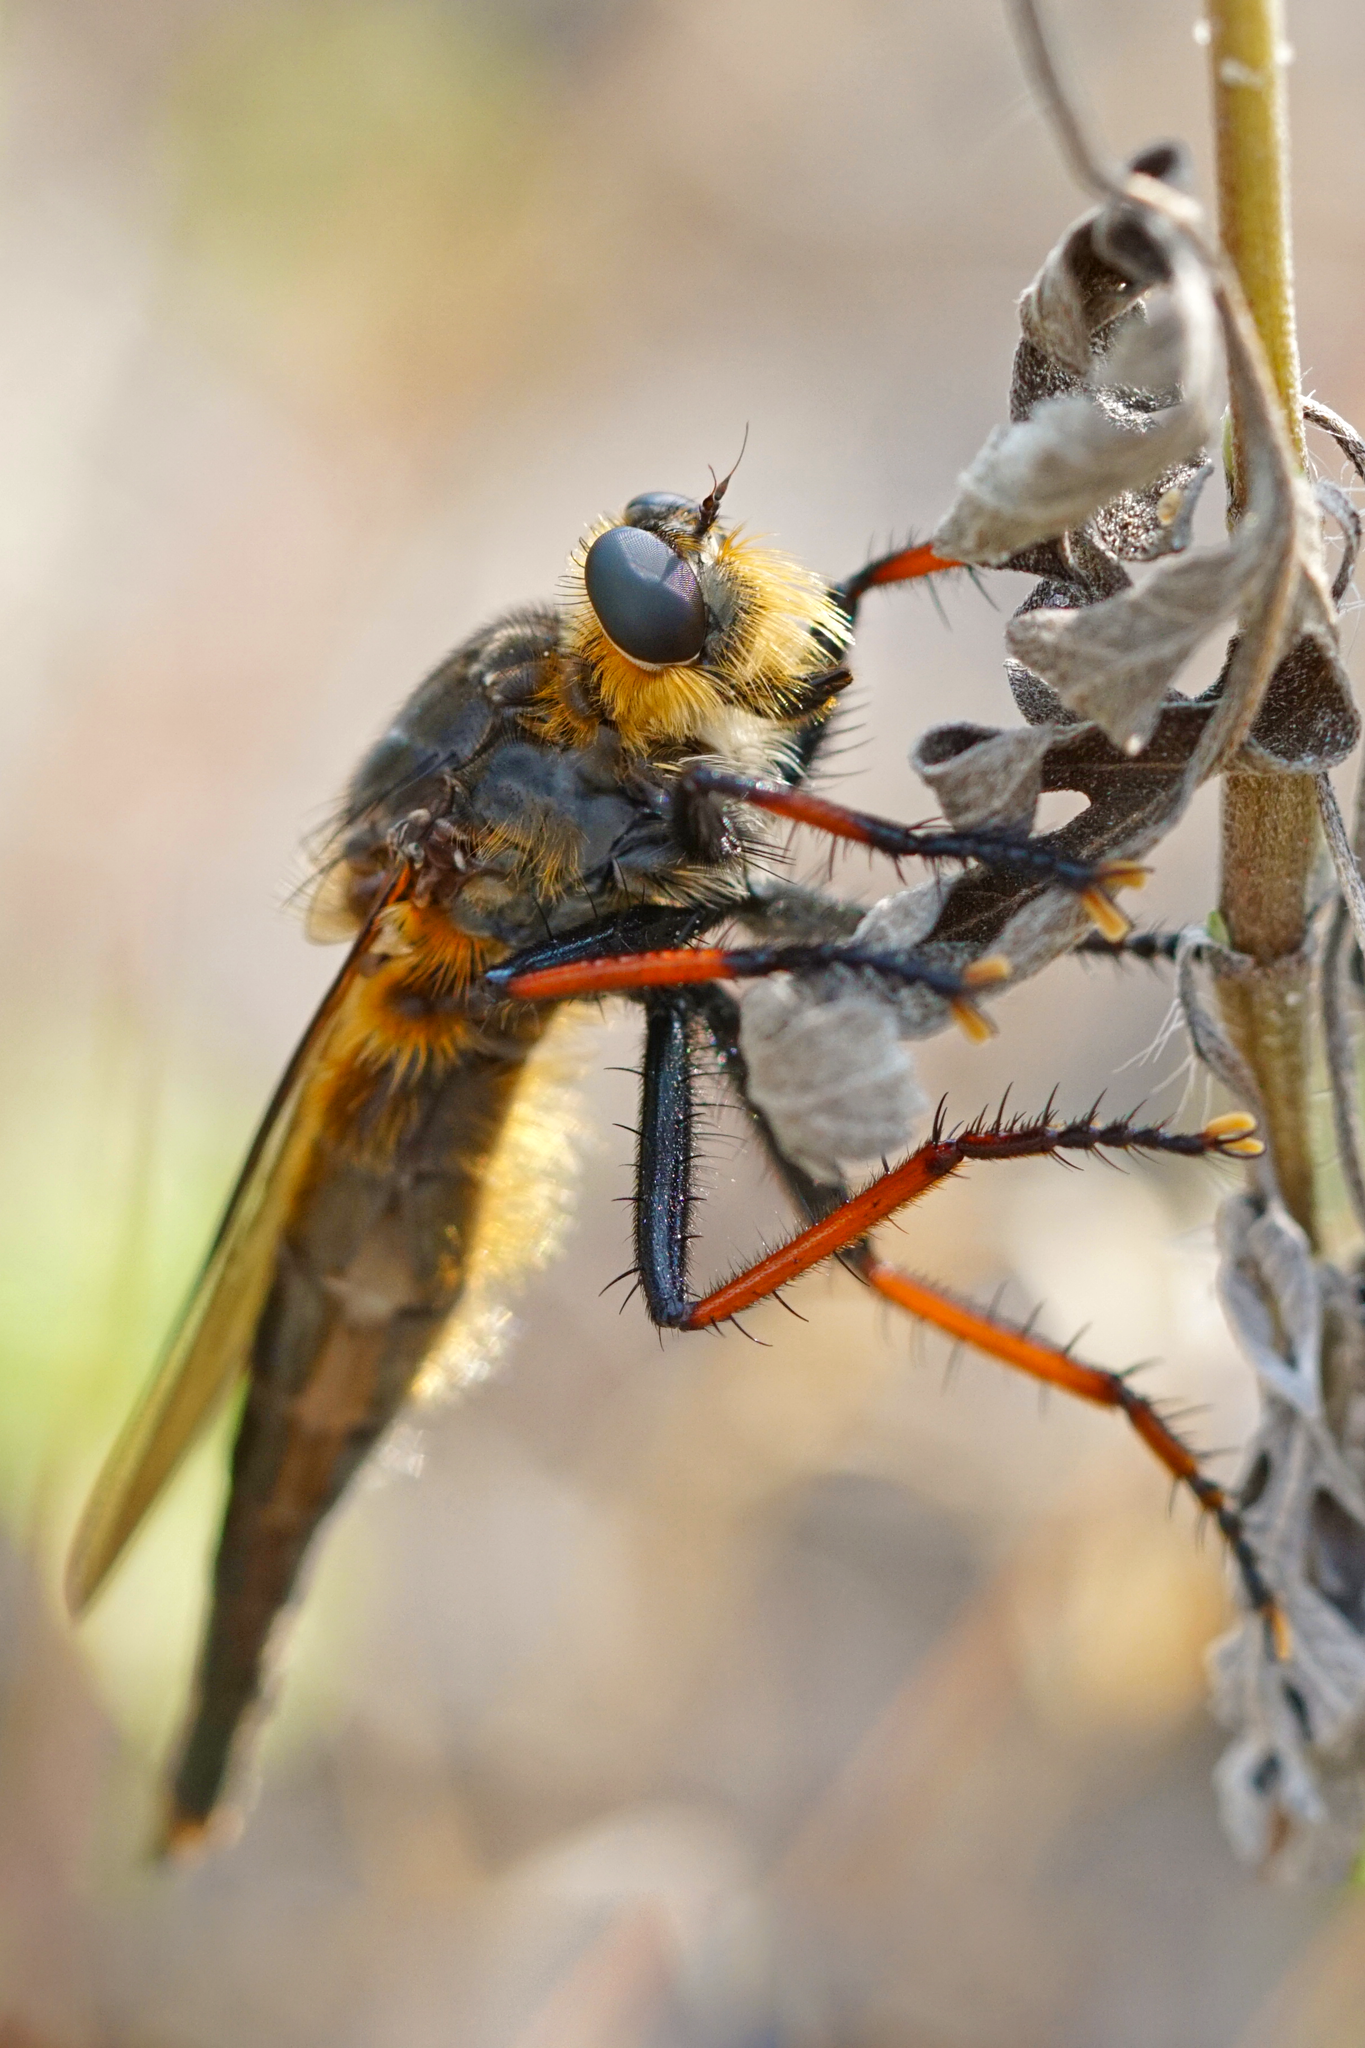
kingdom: Animalia
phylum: Arthropoda
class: Insecta
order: Diptera
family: Asilidae
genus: Proctacanthus
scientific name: Proctacanthus fulviventris
